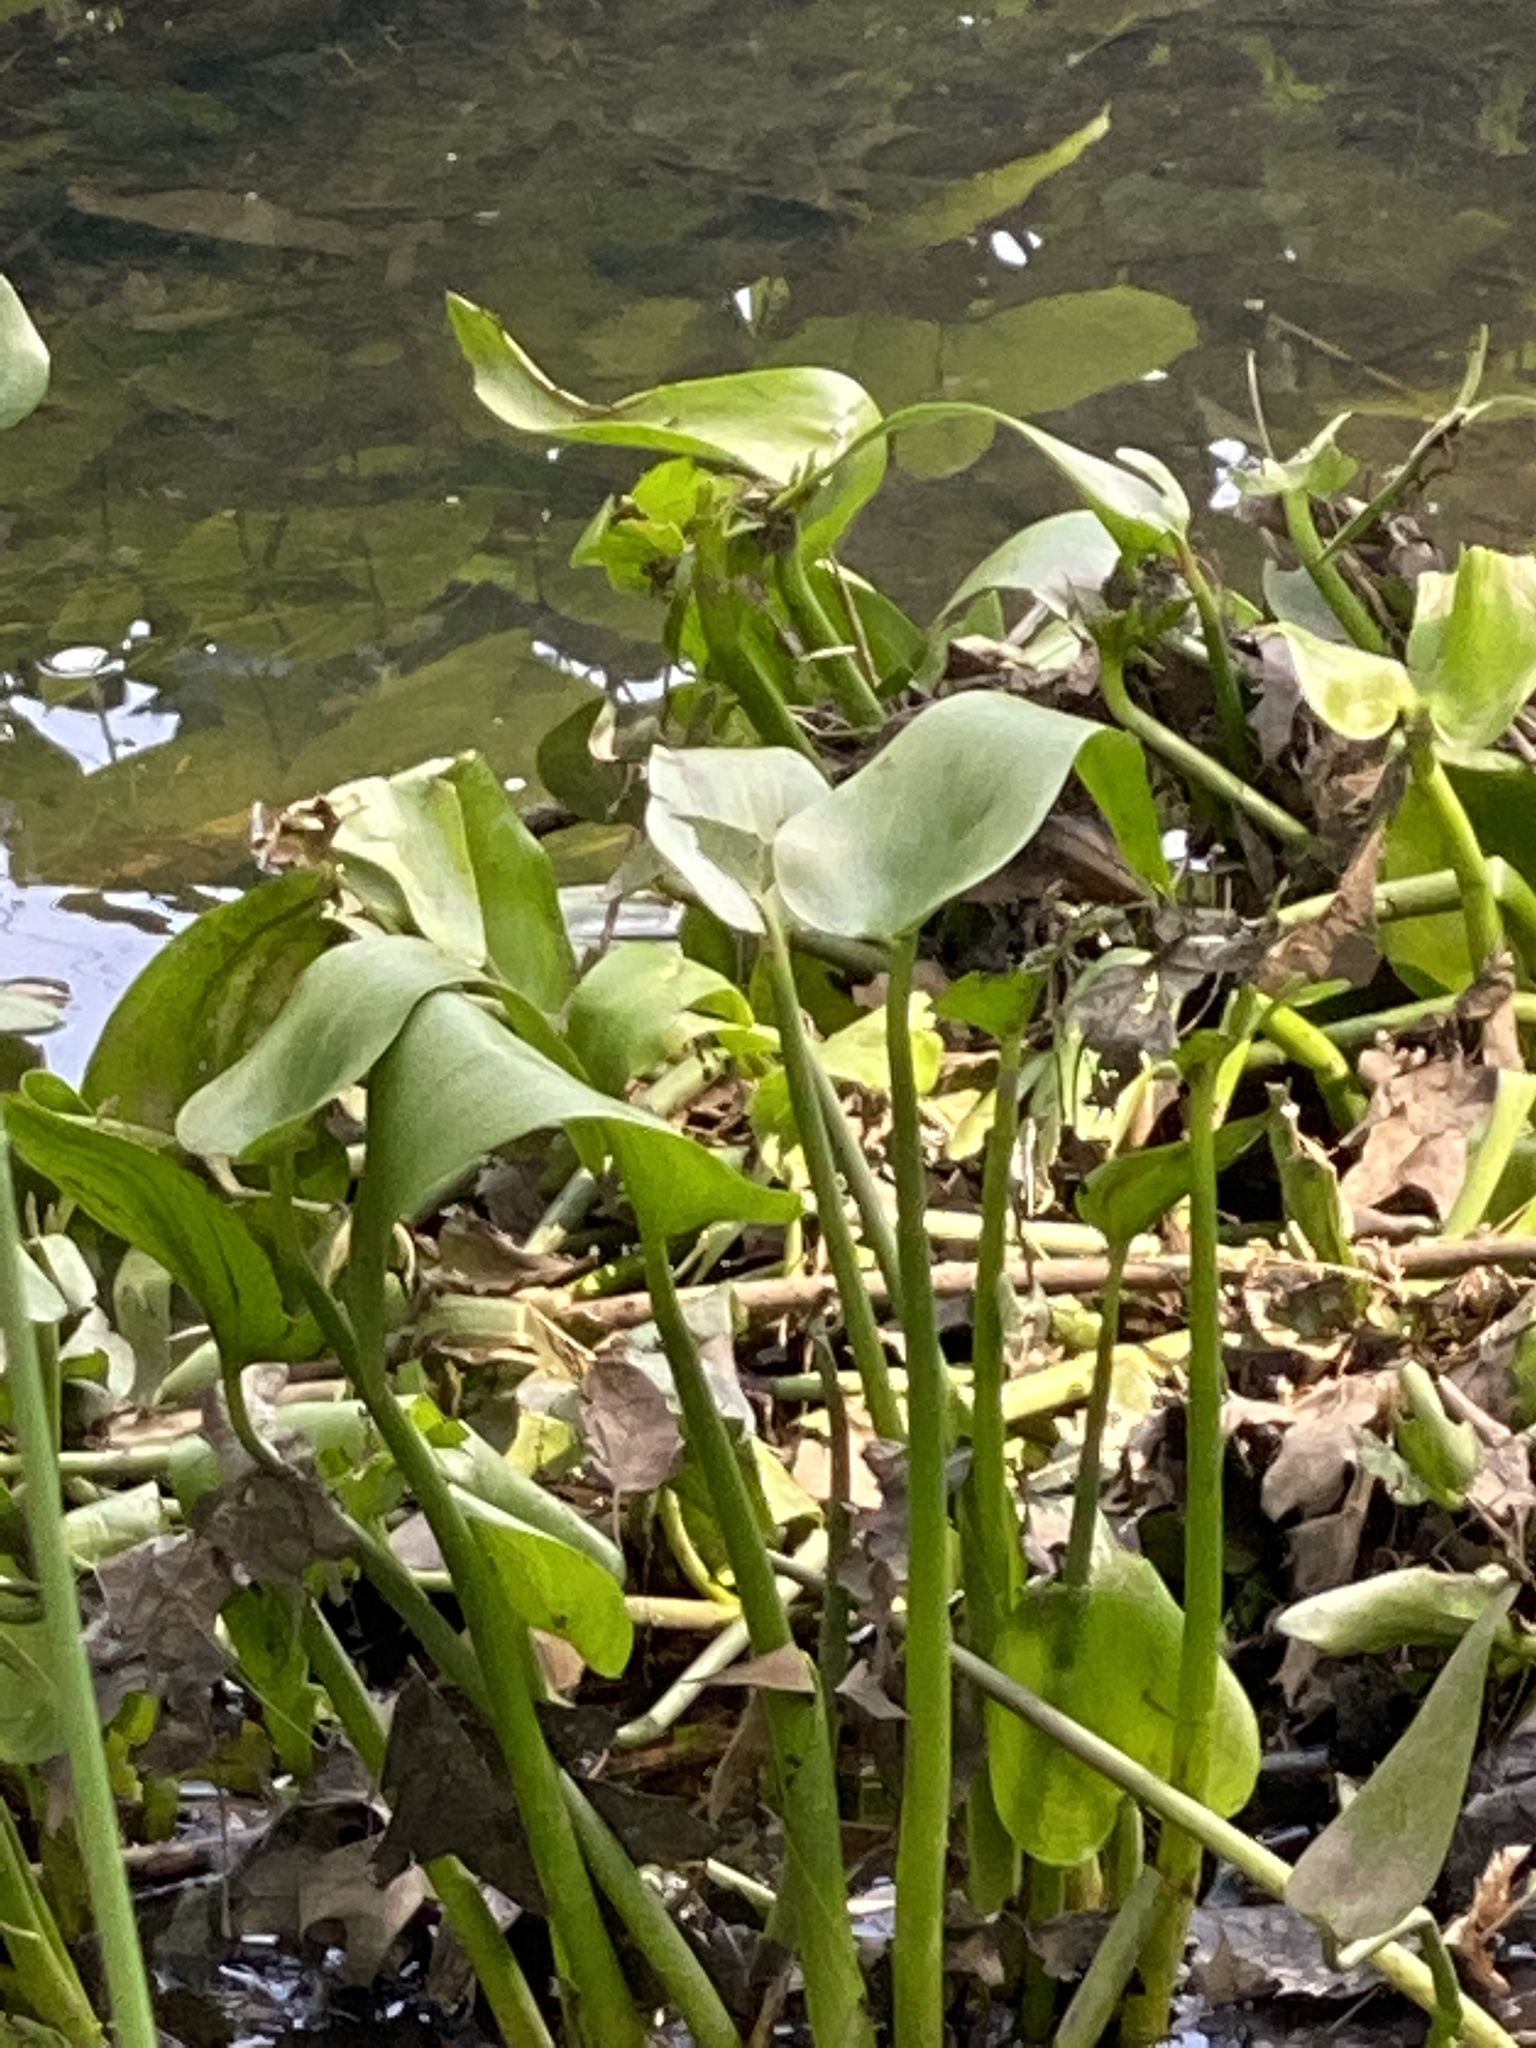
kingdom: Plantae
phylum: Tracheophyta
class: Liliopsida
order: Commelinales
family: Pontederiaceae
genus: Pontederia
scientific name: Pontederia cordata
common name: Pickerelweed
